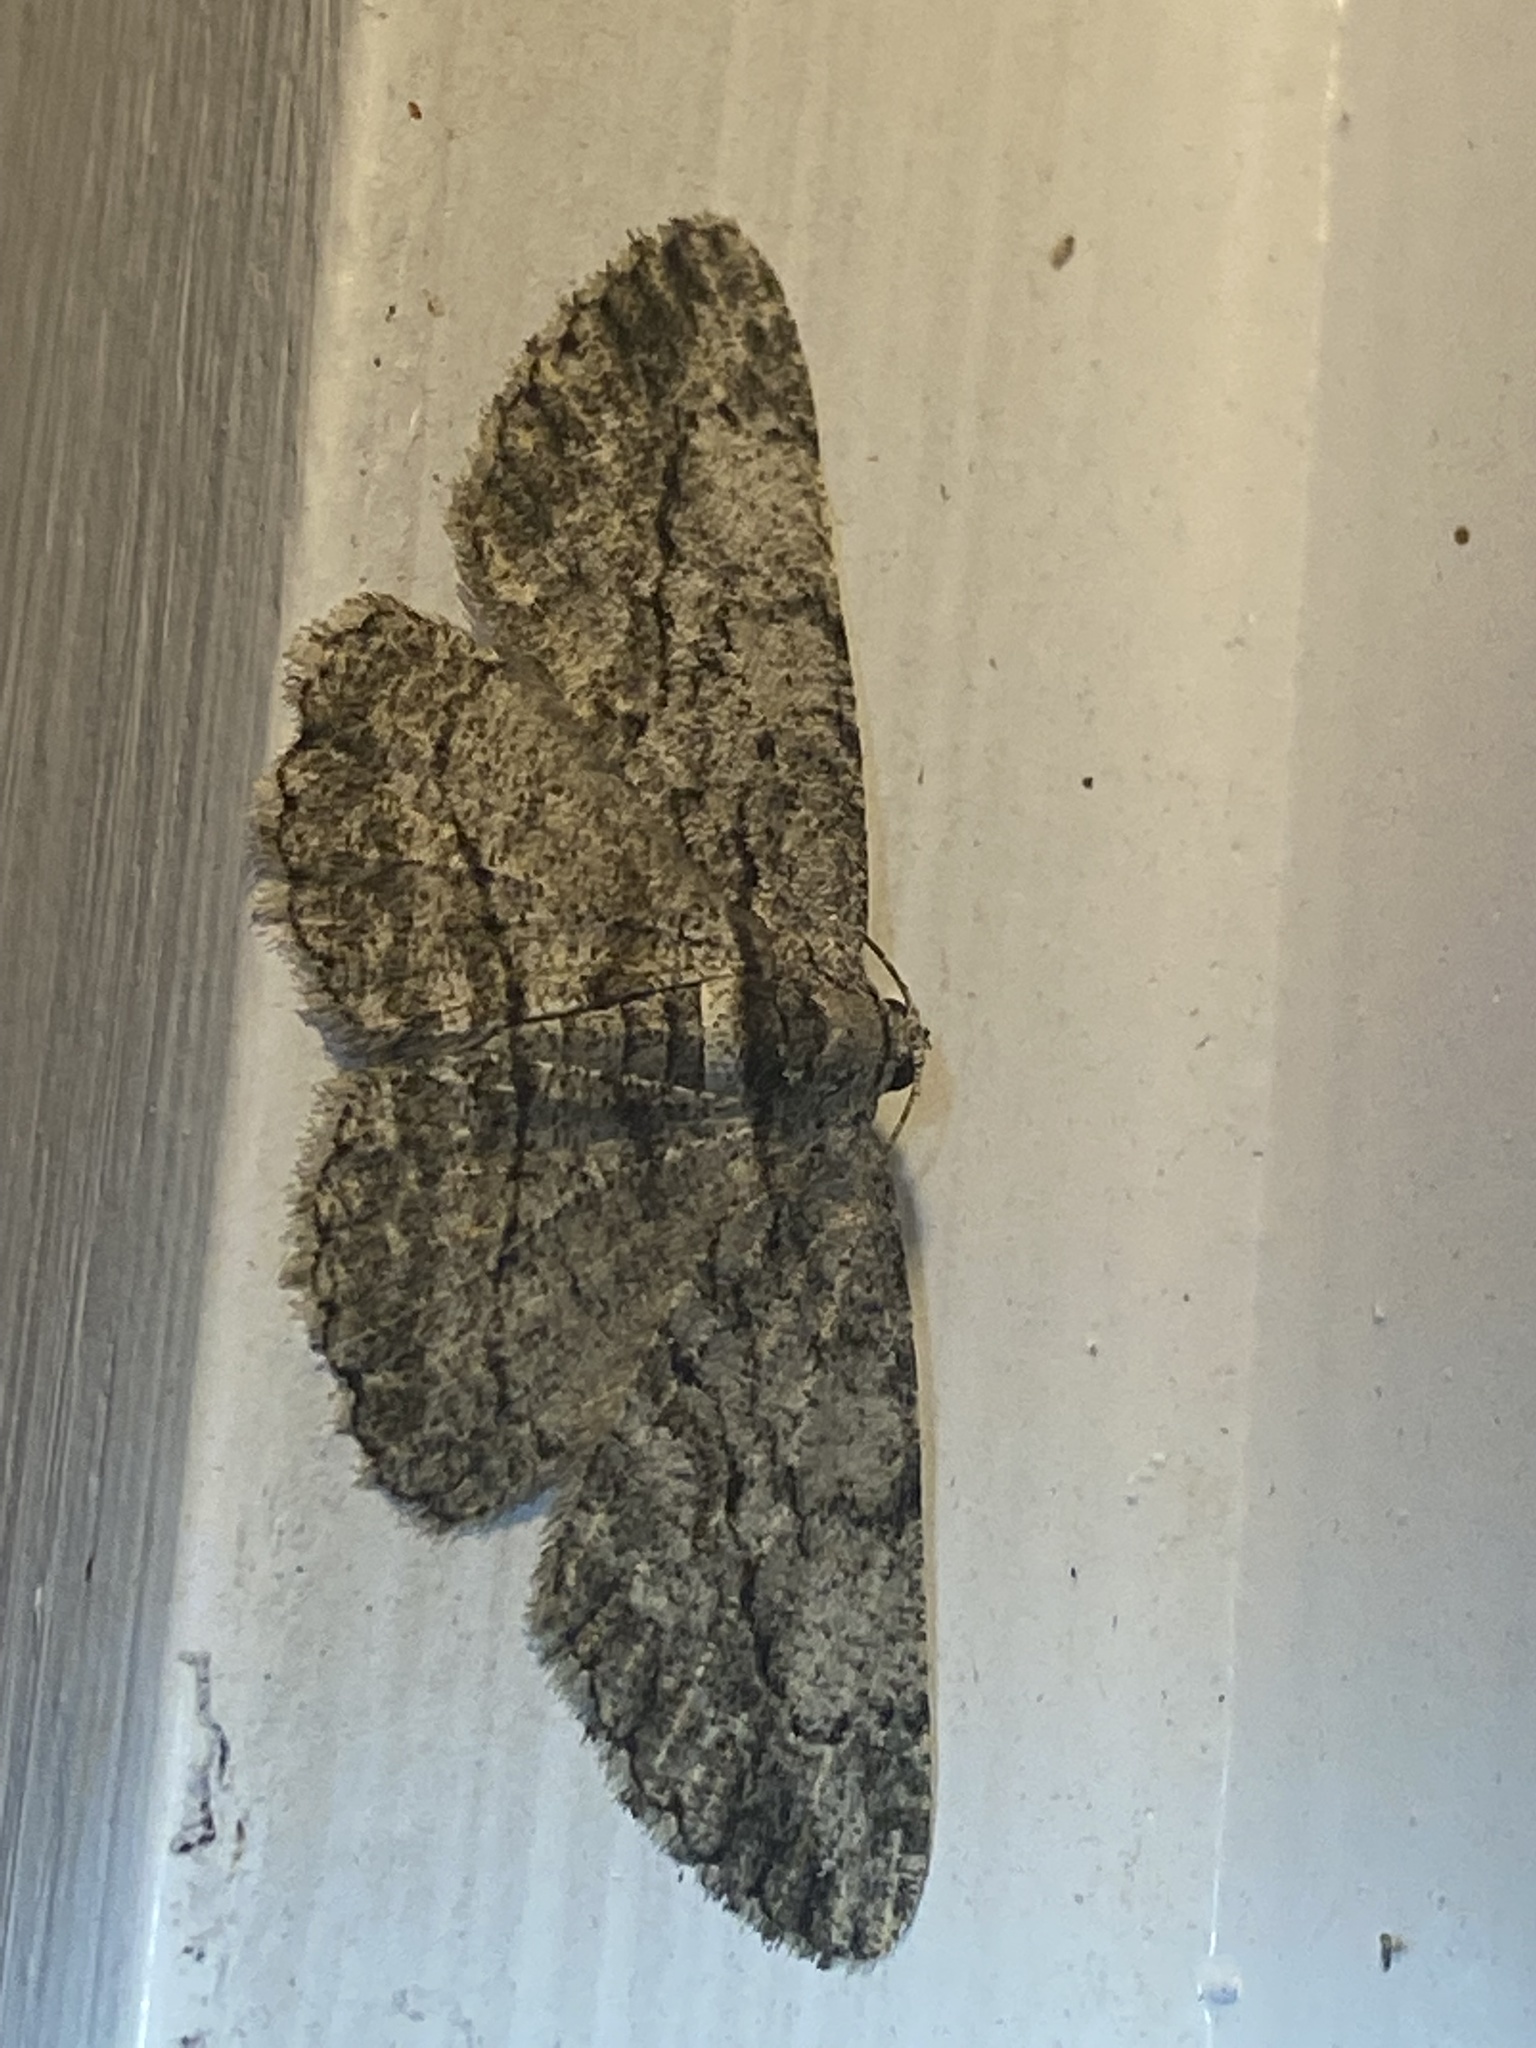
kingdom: Animalia
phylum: Arthropoda
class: Insecta
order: Lepidoptera
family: Geometridae
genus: Anavitrinella
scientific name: Anavitrinella pampinaria
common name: Common gray
